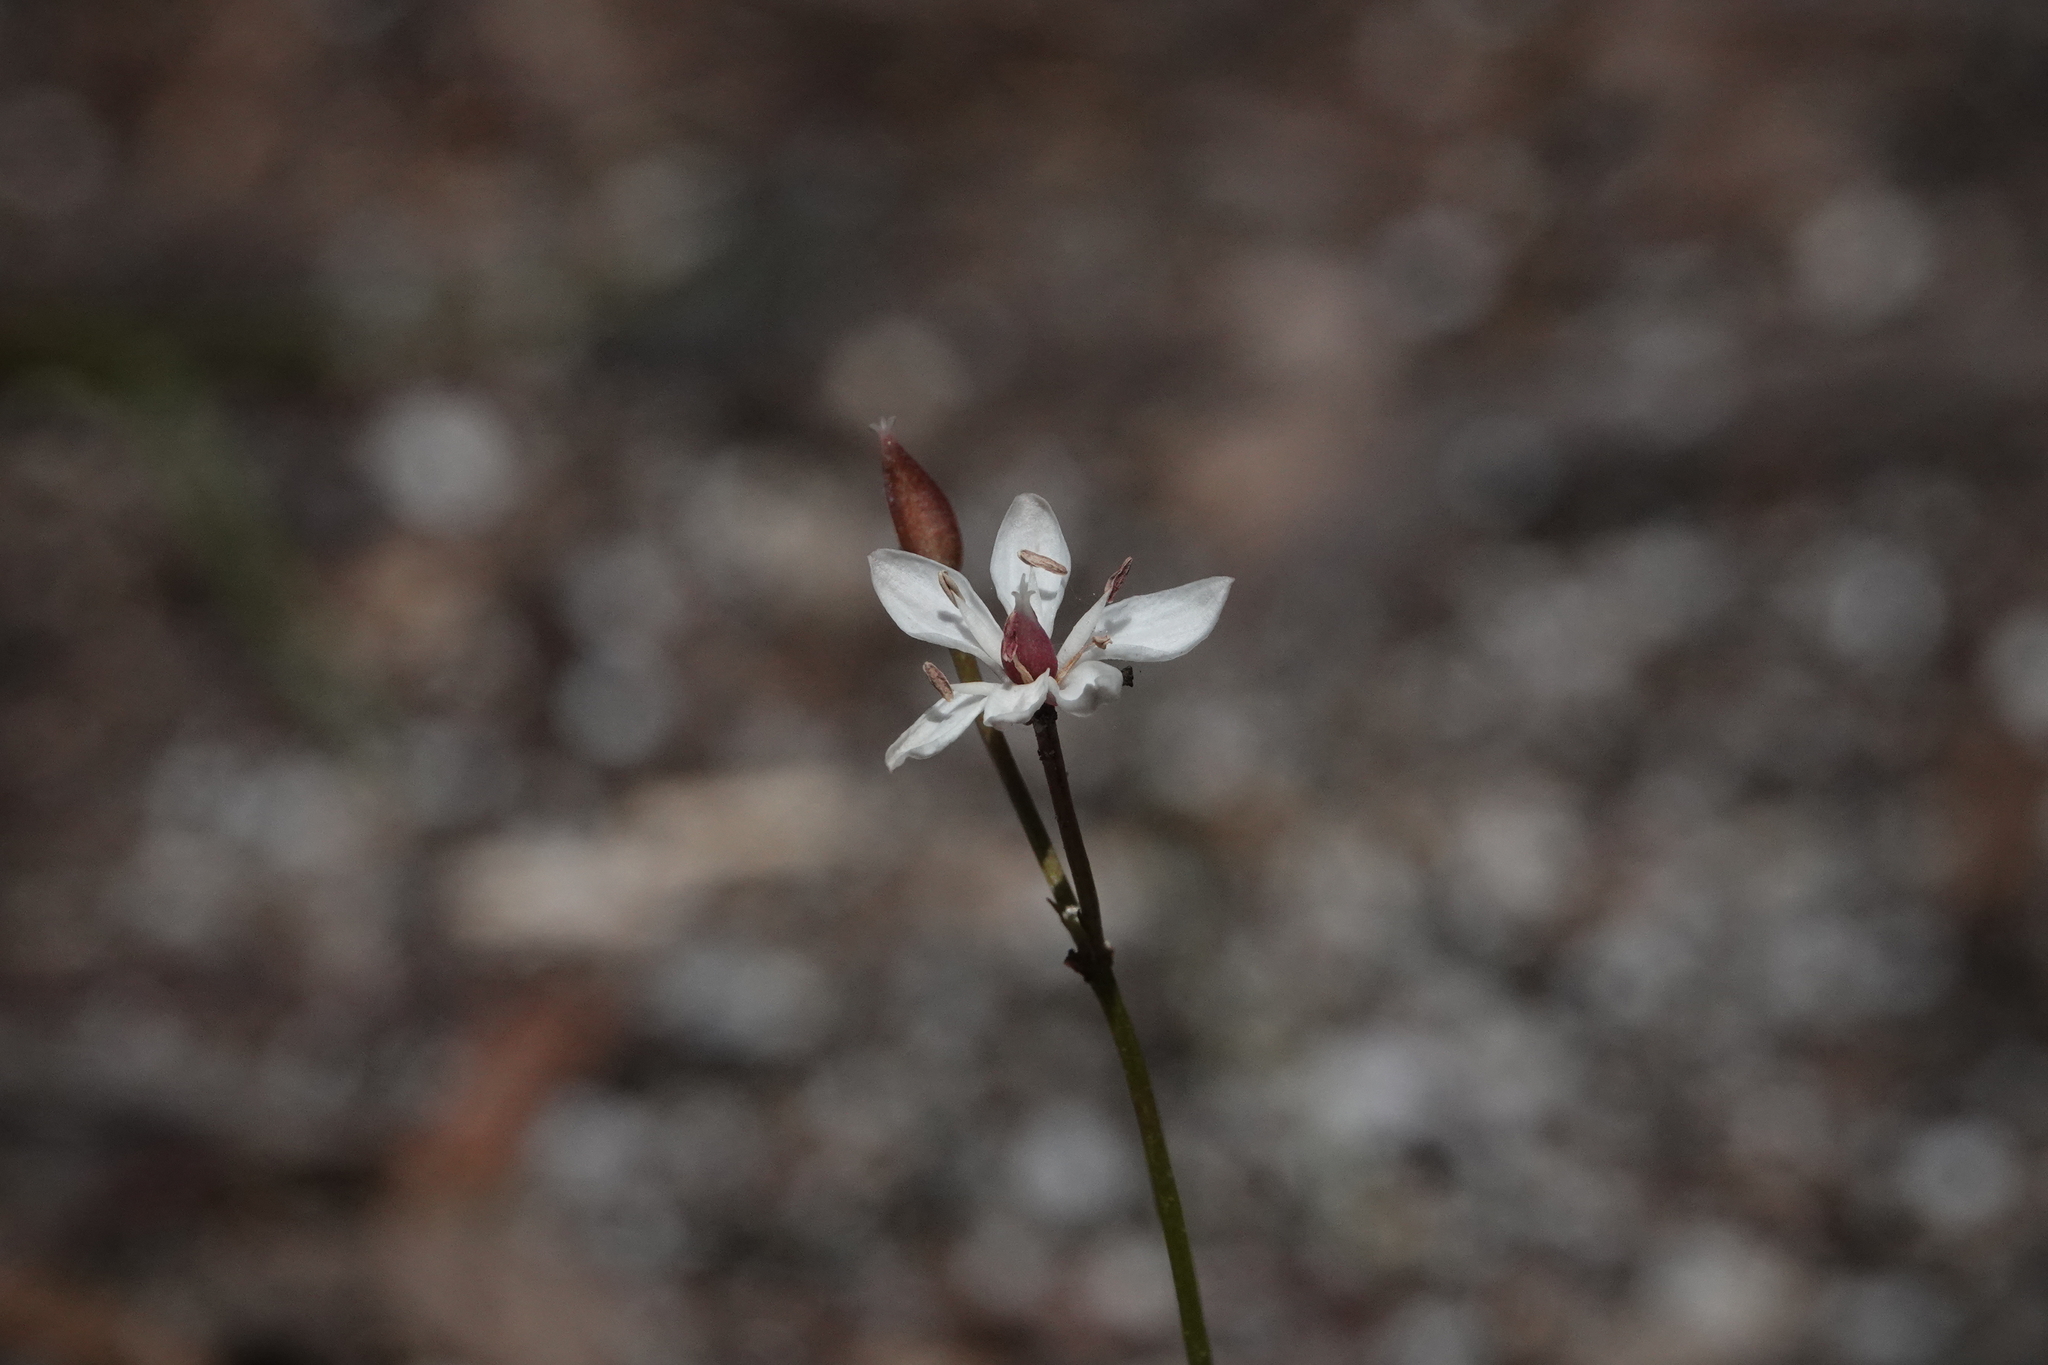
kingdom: Plantae
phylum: Tracheophyta
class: Liliopsida
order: Liliales
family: Colchicaceae
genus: Burchardia
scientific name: Burchardia umbellata
